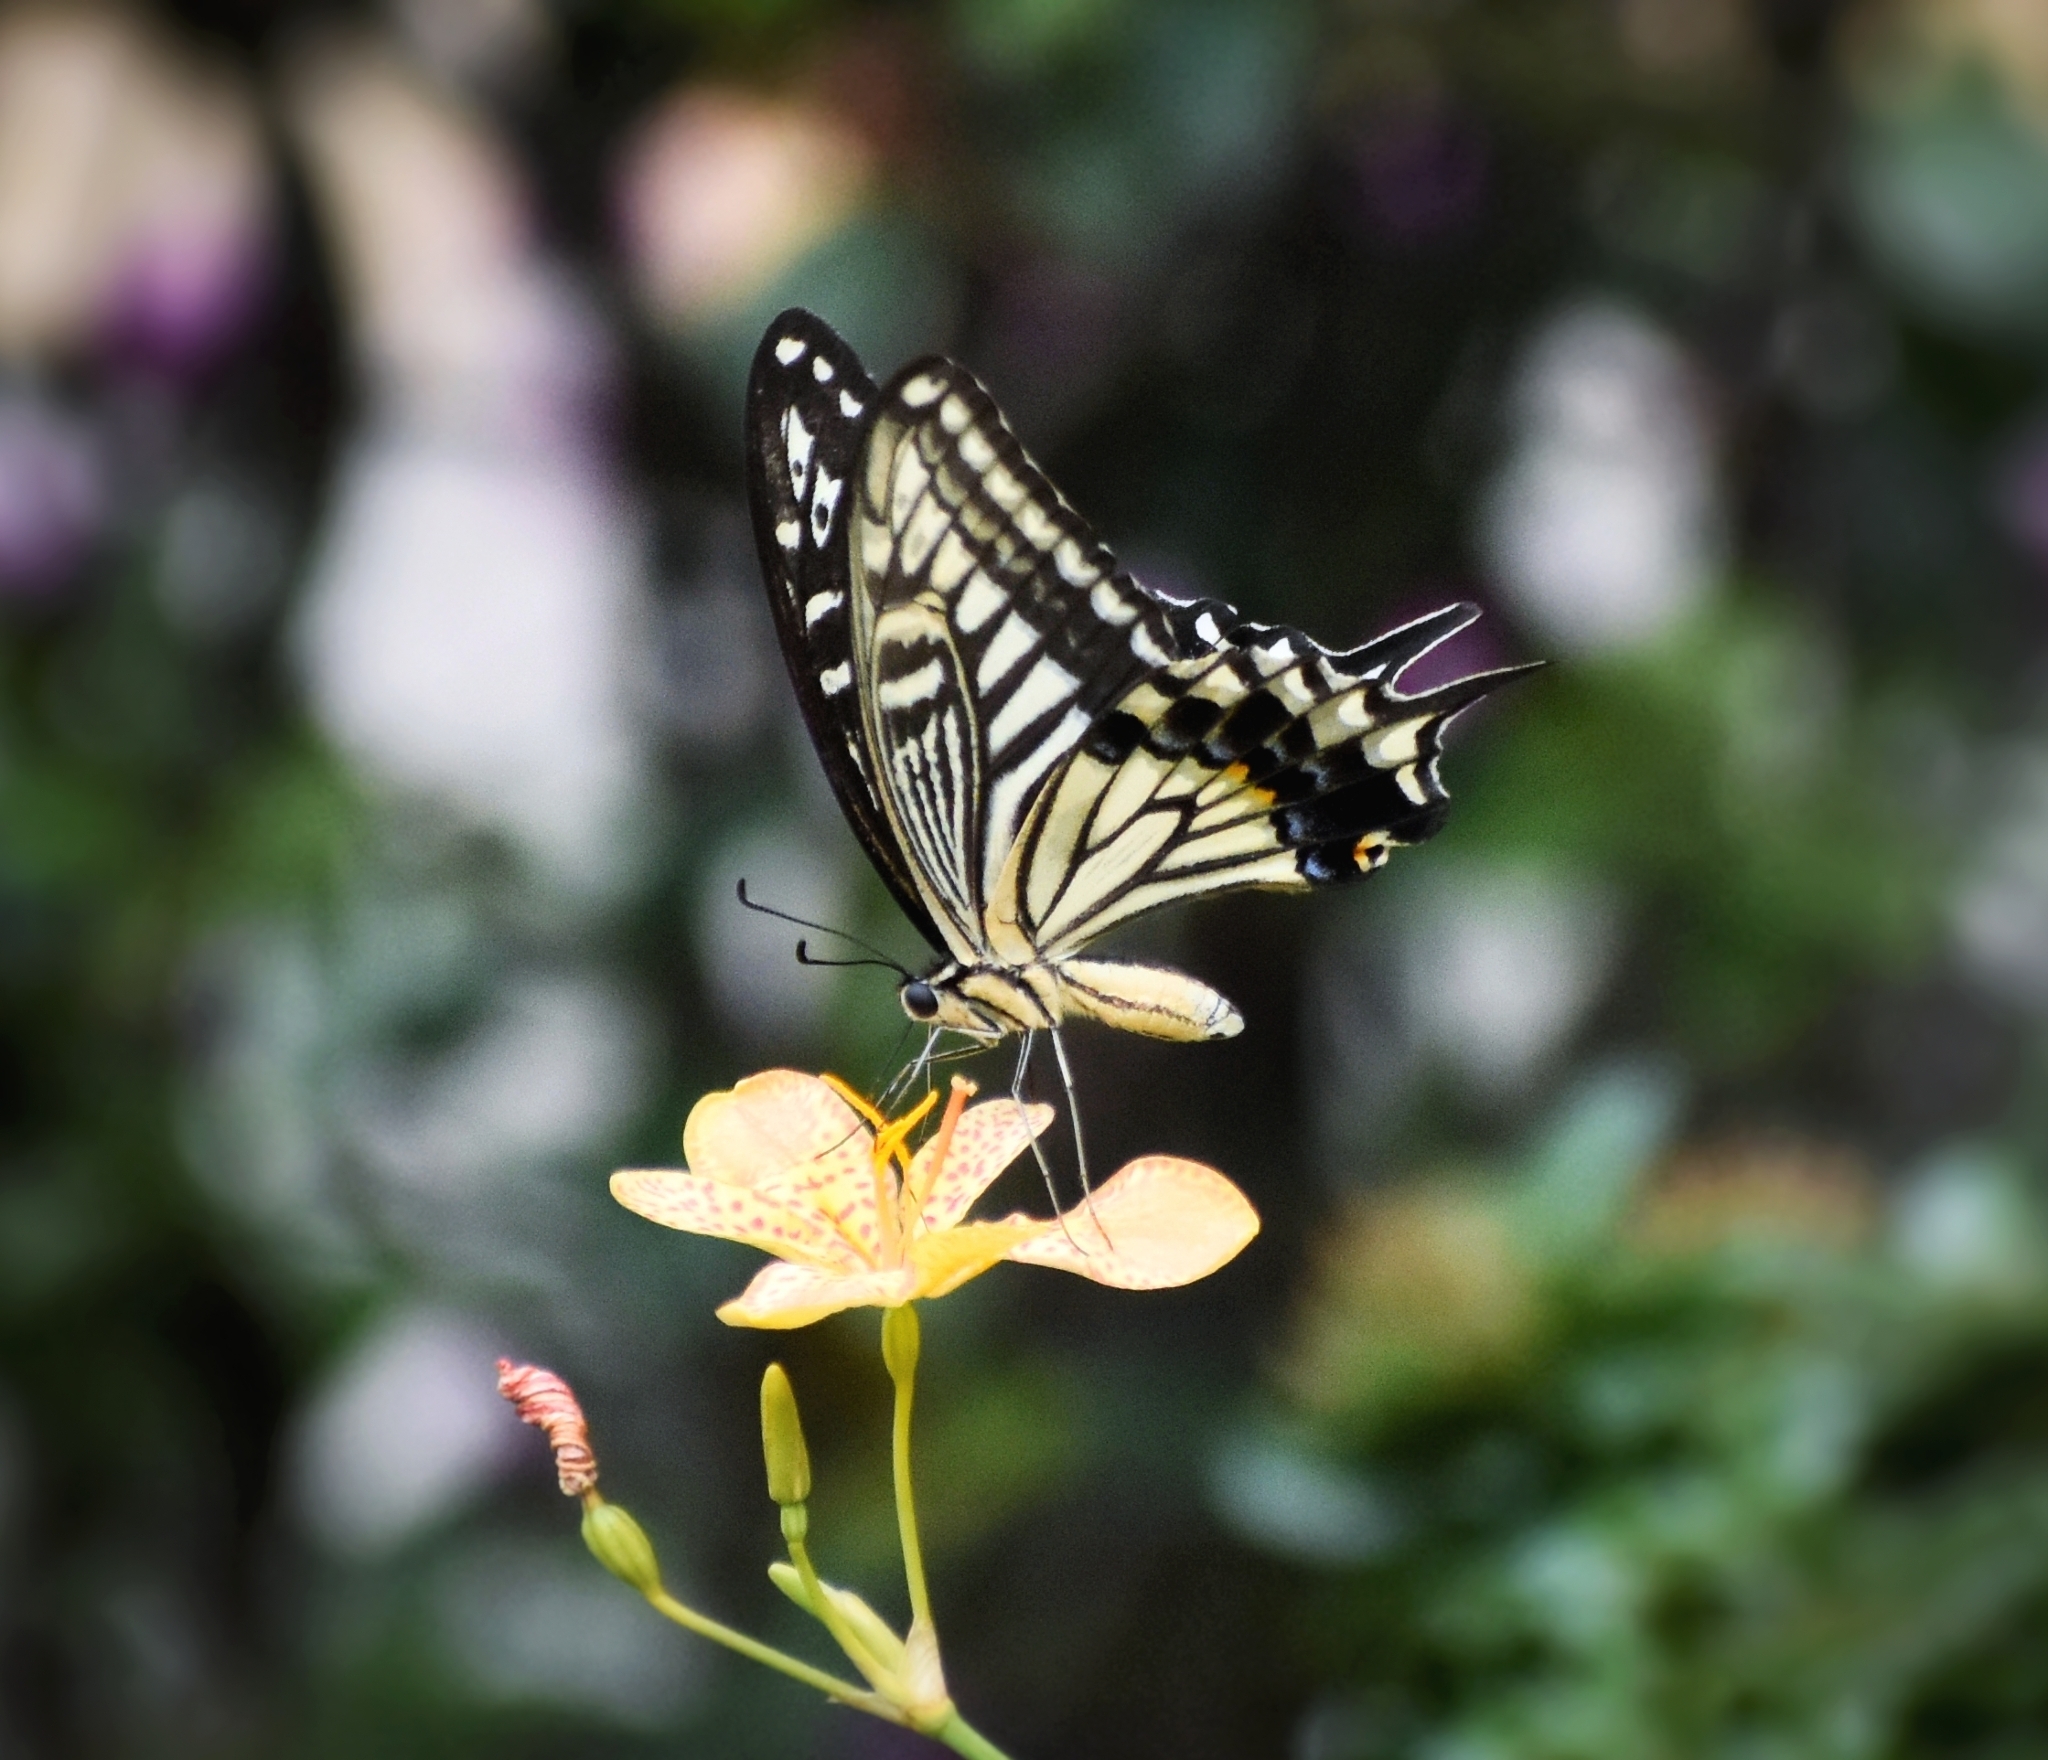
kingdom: Animalia
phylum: Arthropoda
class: Insecta
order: Lepidoptera
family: Papilionidae
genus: Papilio
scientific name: Papilio xuthus
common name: Asian swallowtail
